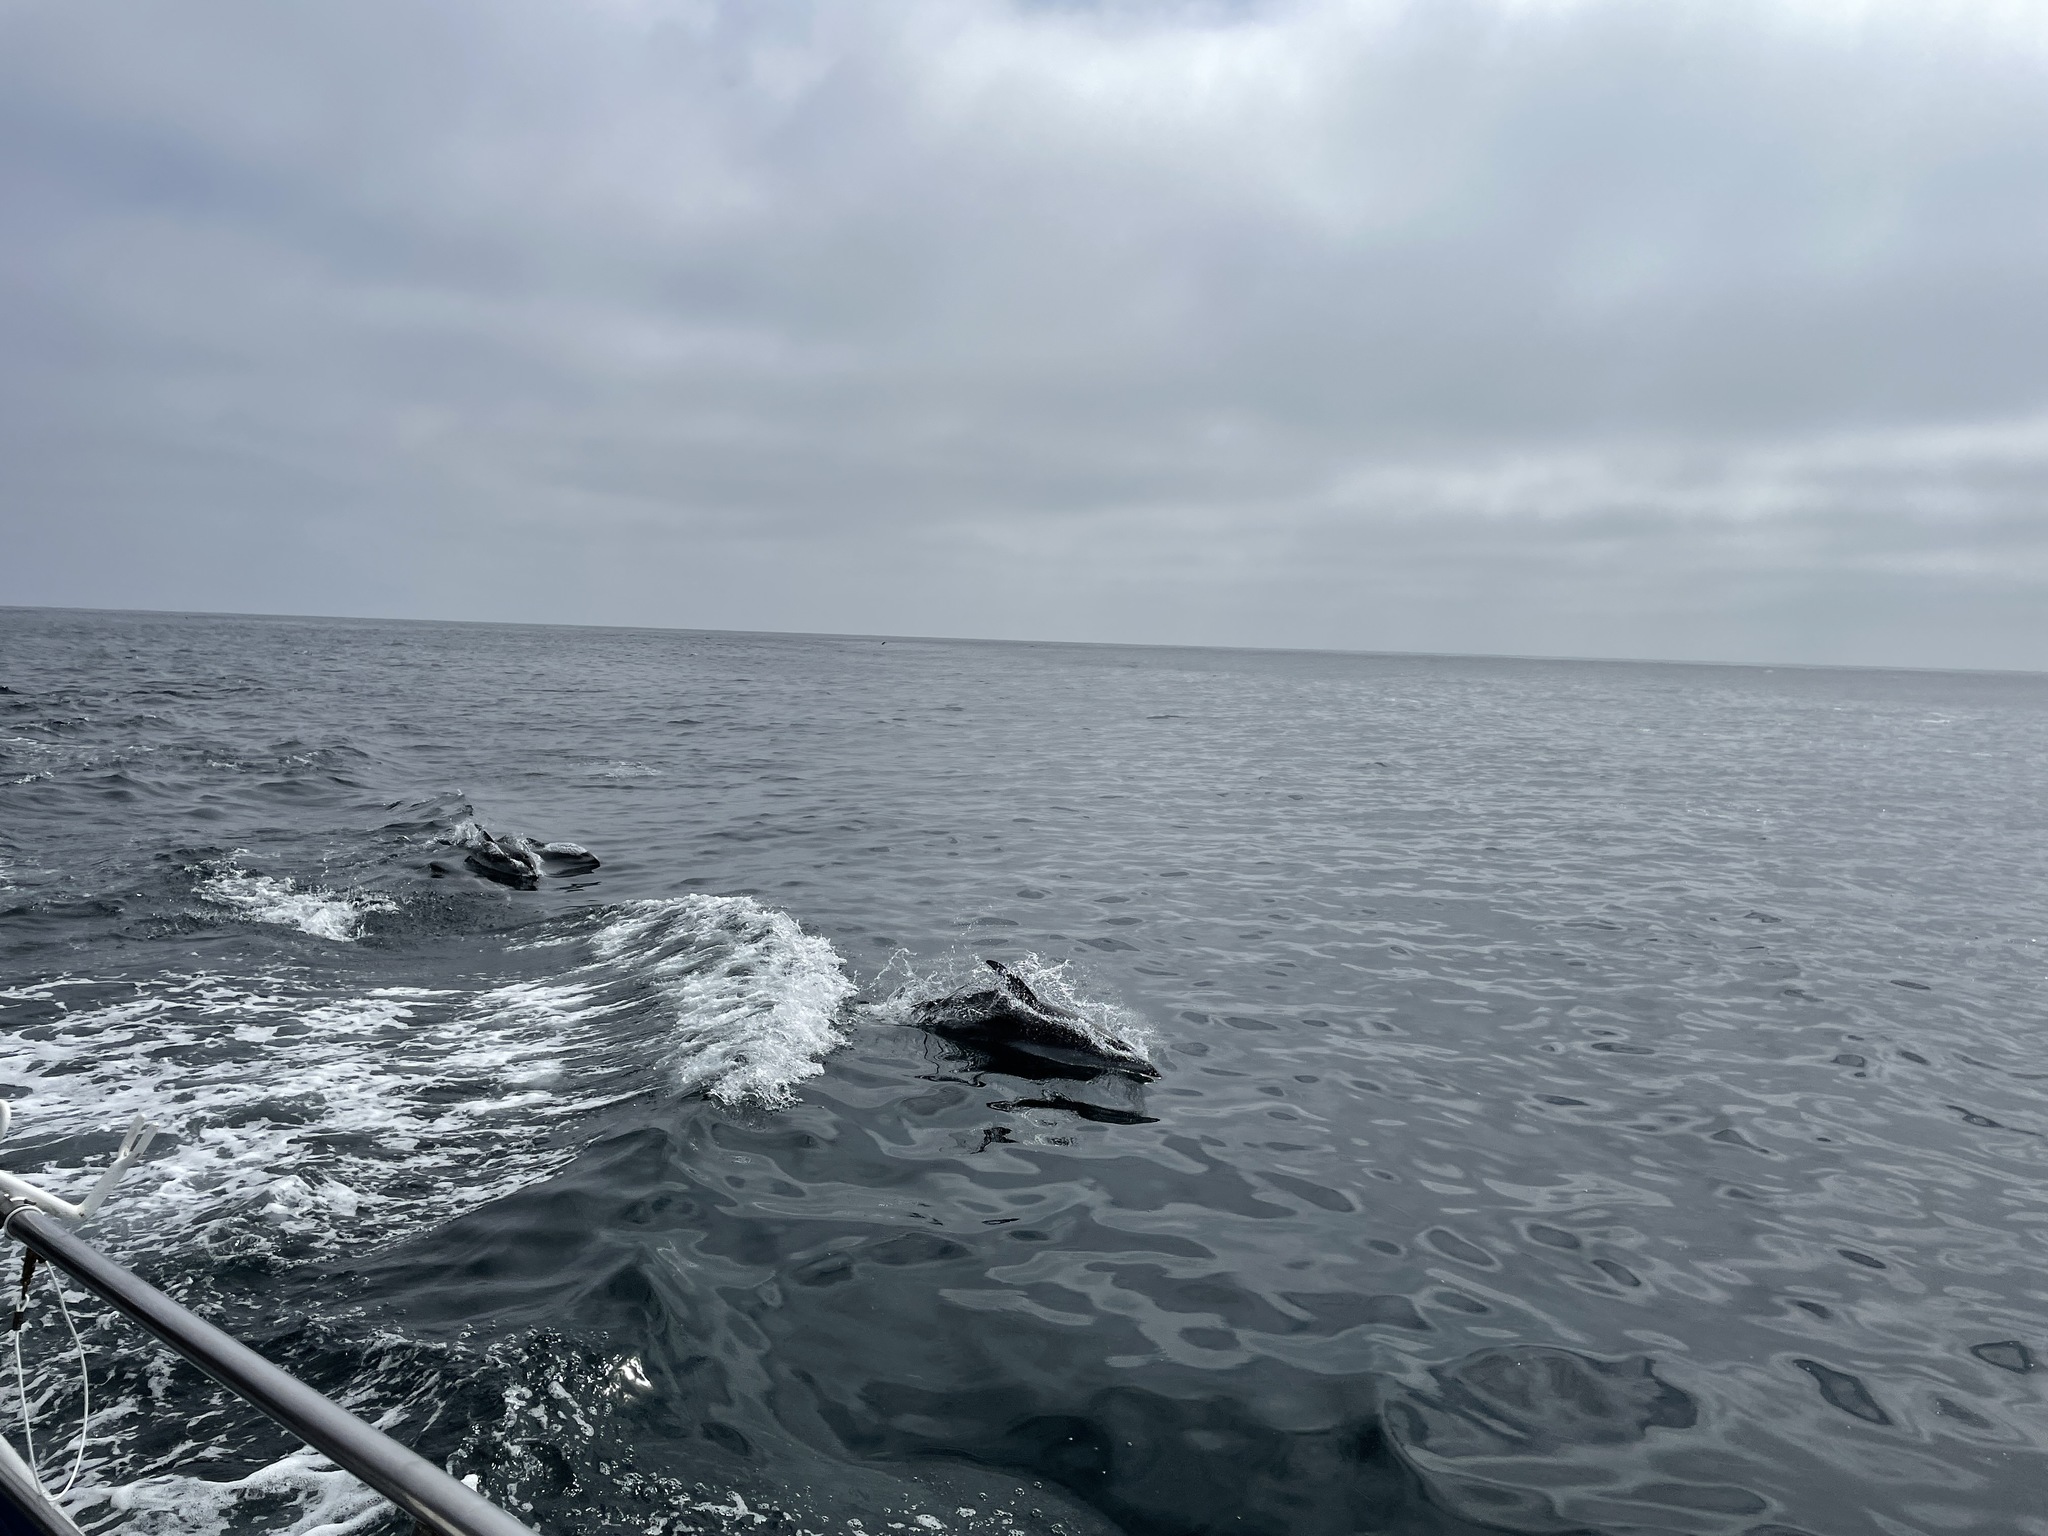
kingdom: Animalia
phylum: Chordata
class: Mammalia
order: Cetacea
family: Delphinidae
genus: Lagenorhynchus
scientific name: Lagenorhynchus obliquidens
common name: Pacific white-sided dolphin
